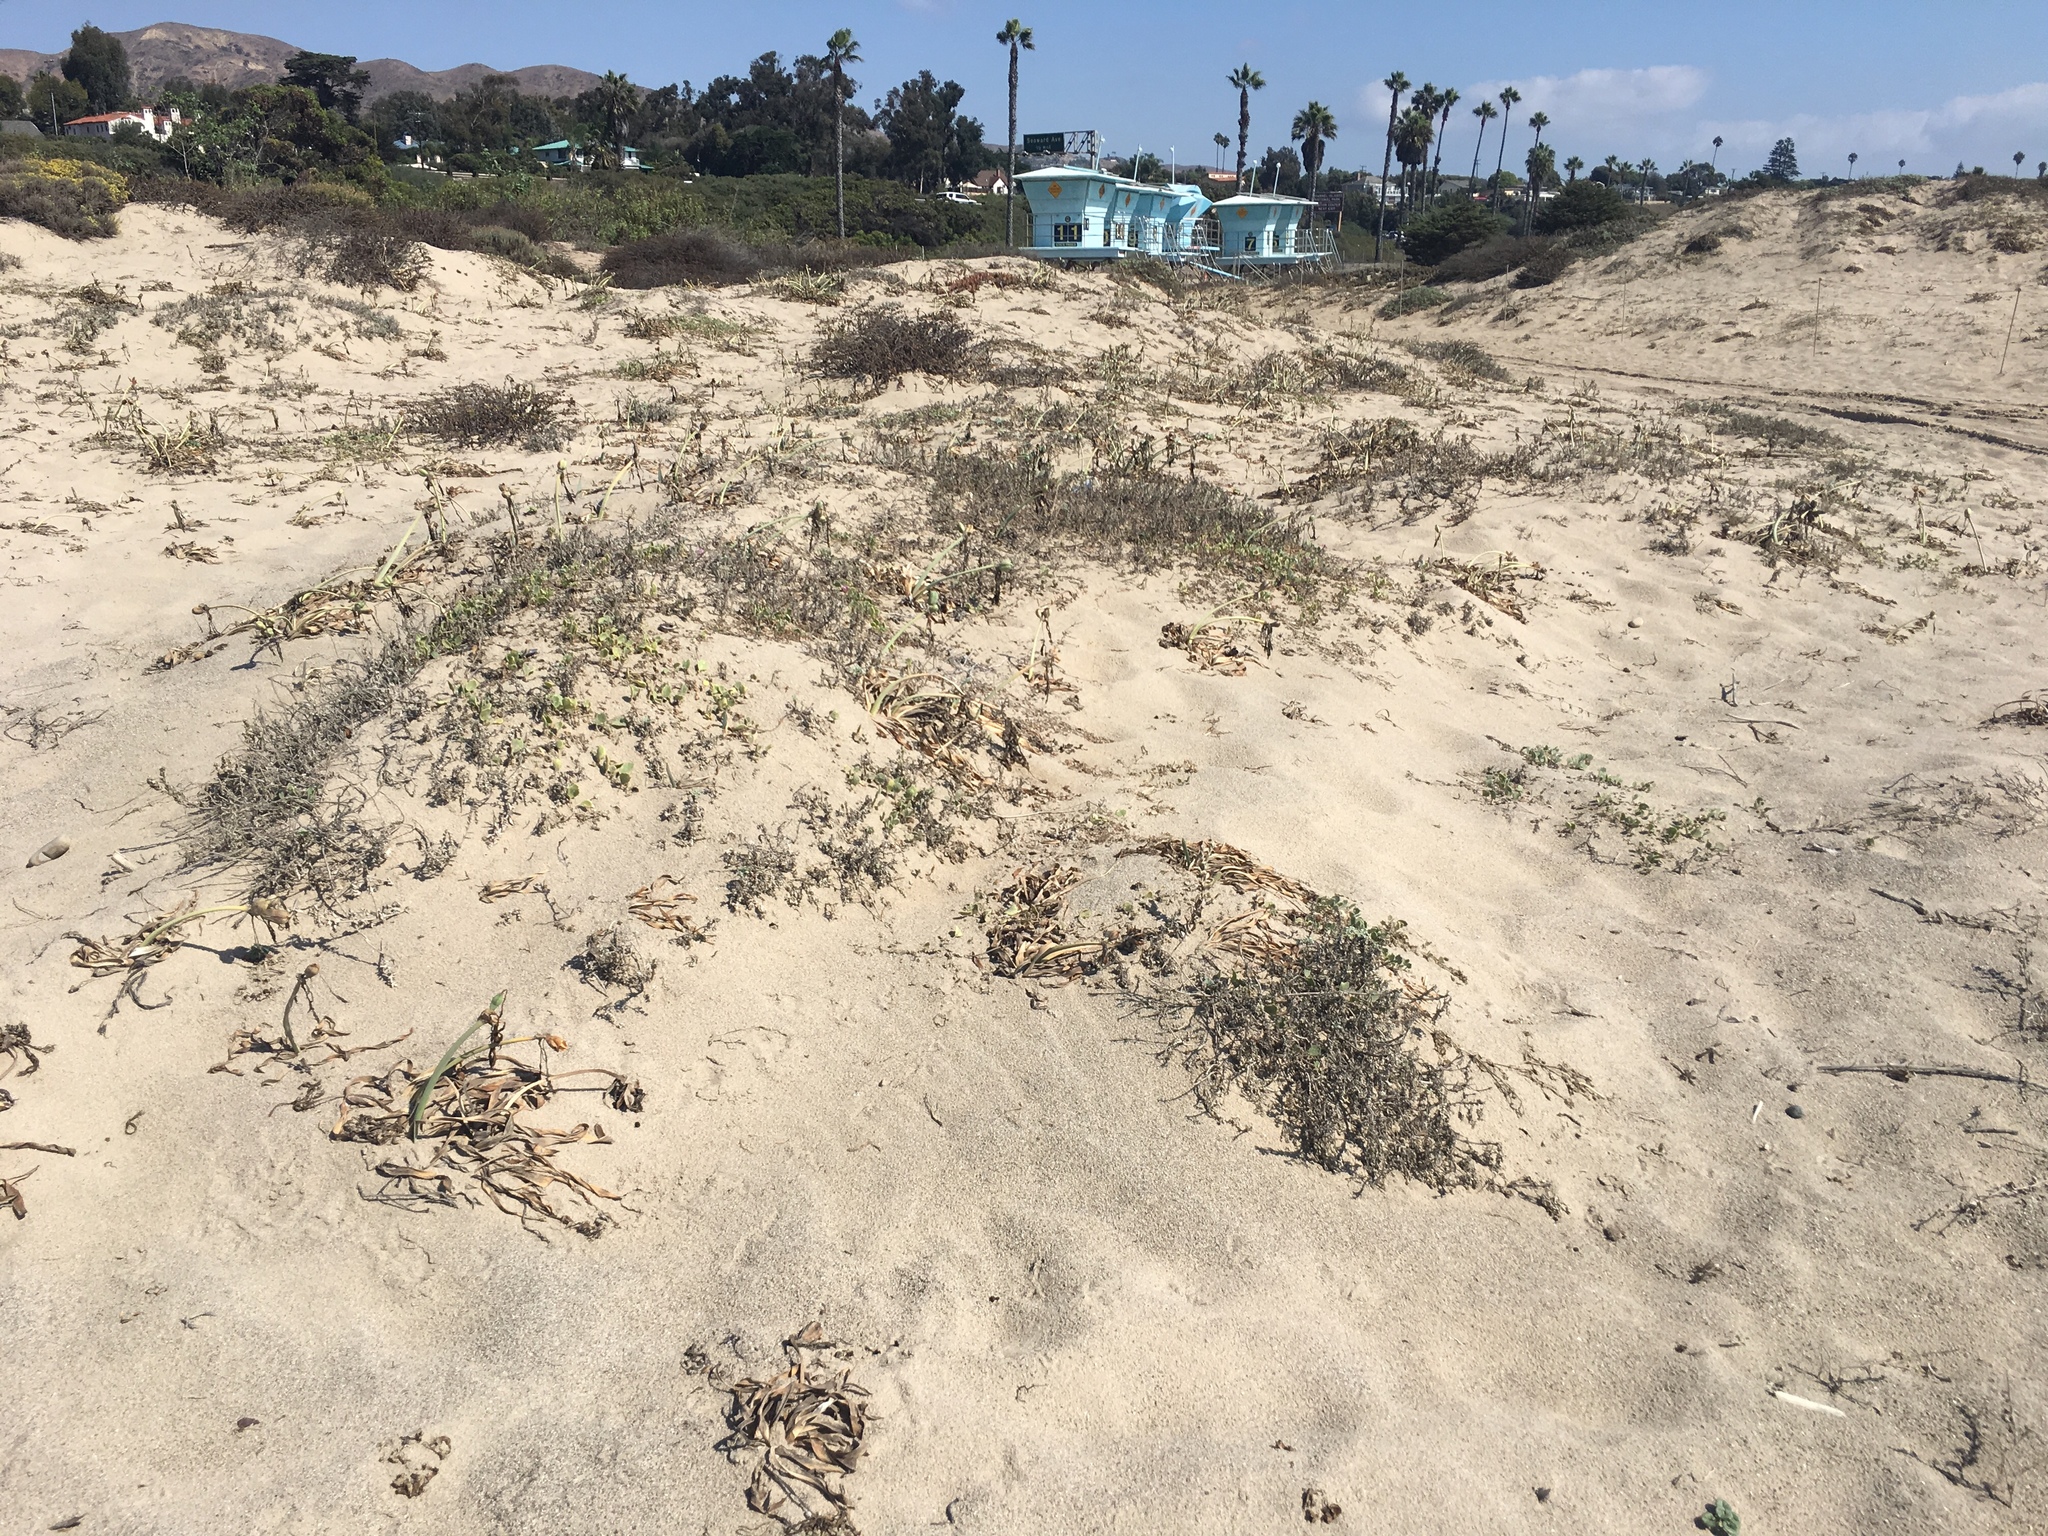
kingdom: Plantae
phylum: Tracheophyta
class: Liliopsida
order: Asparagales
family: Amaryllidaceae
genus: Pancratium
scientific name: Pancratium maritimum
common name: Sea-daffodil
